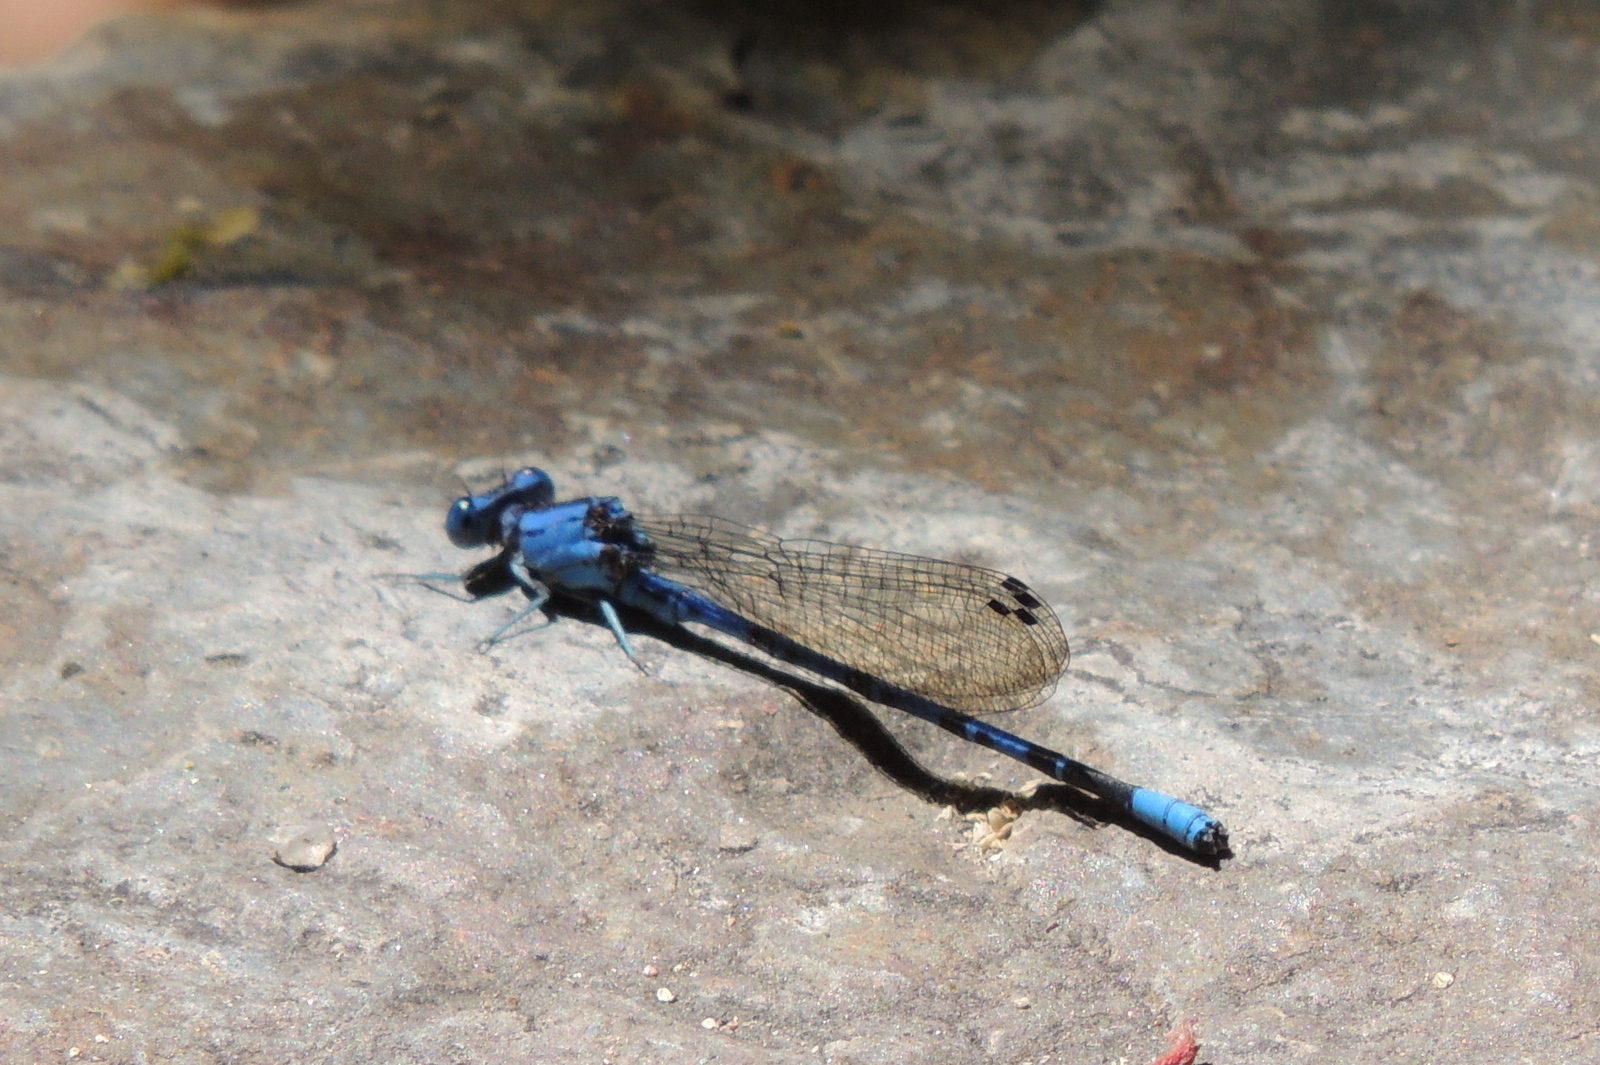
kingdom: Animalia
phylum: Arthropoda
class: Insecta
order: Odonata
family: Coenagrionidae
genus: Argia
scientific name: Argia vivida
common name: Vivid dancer
